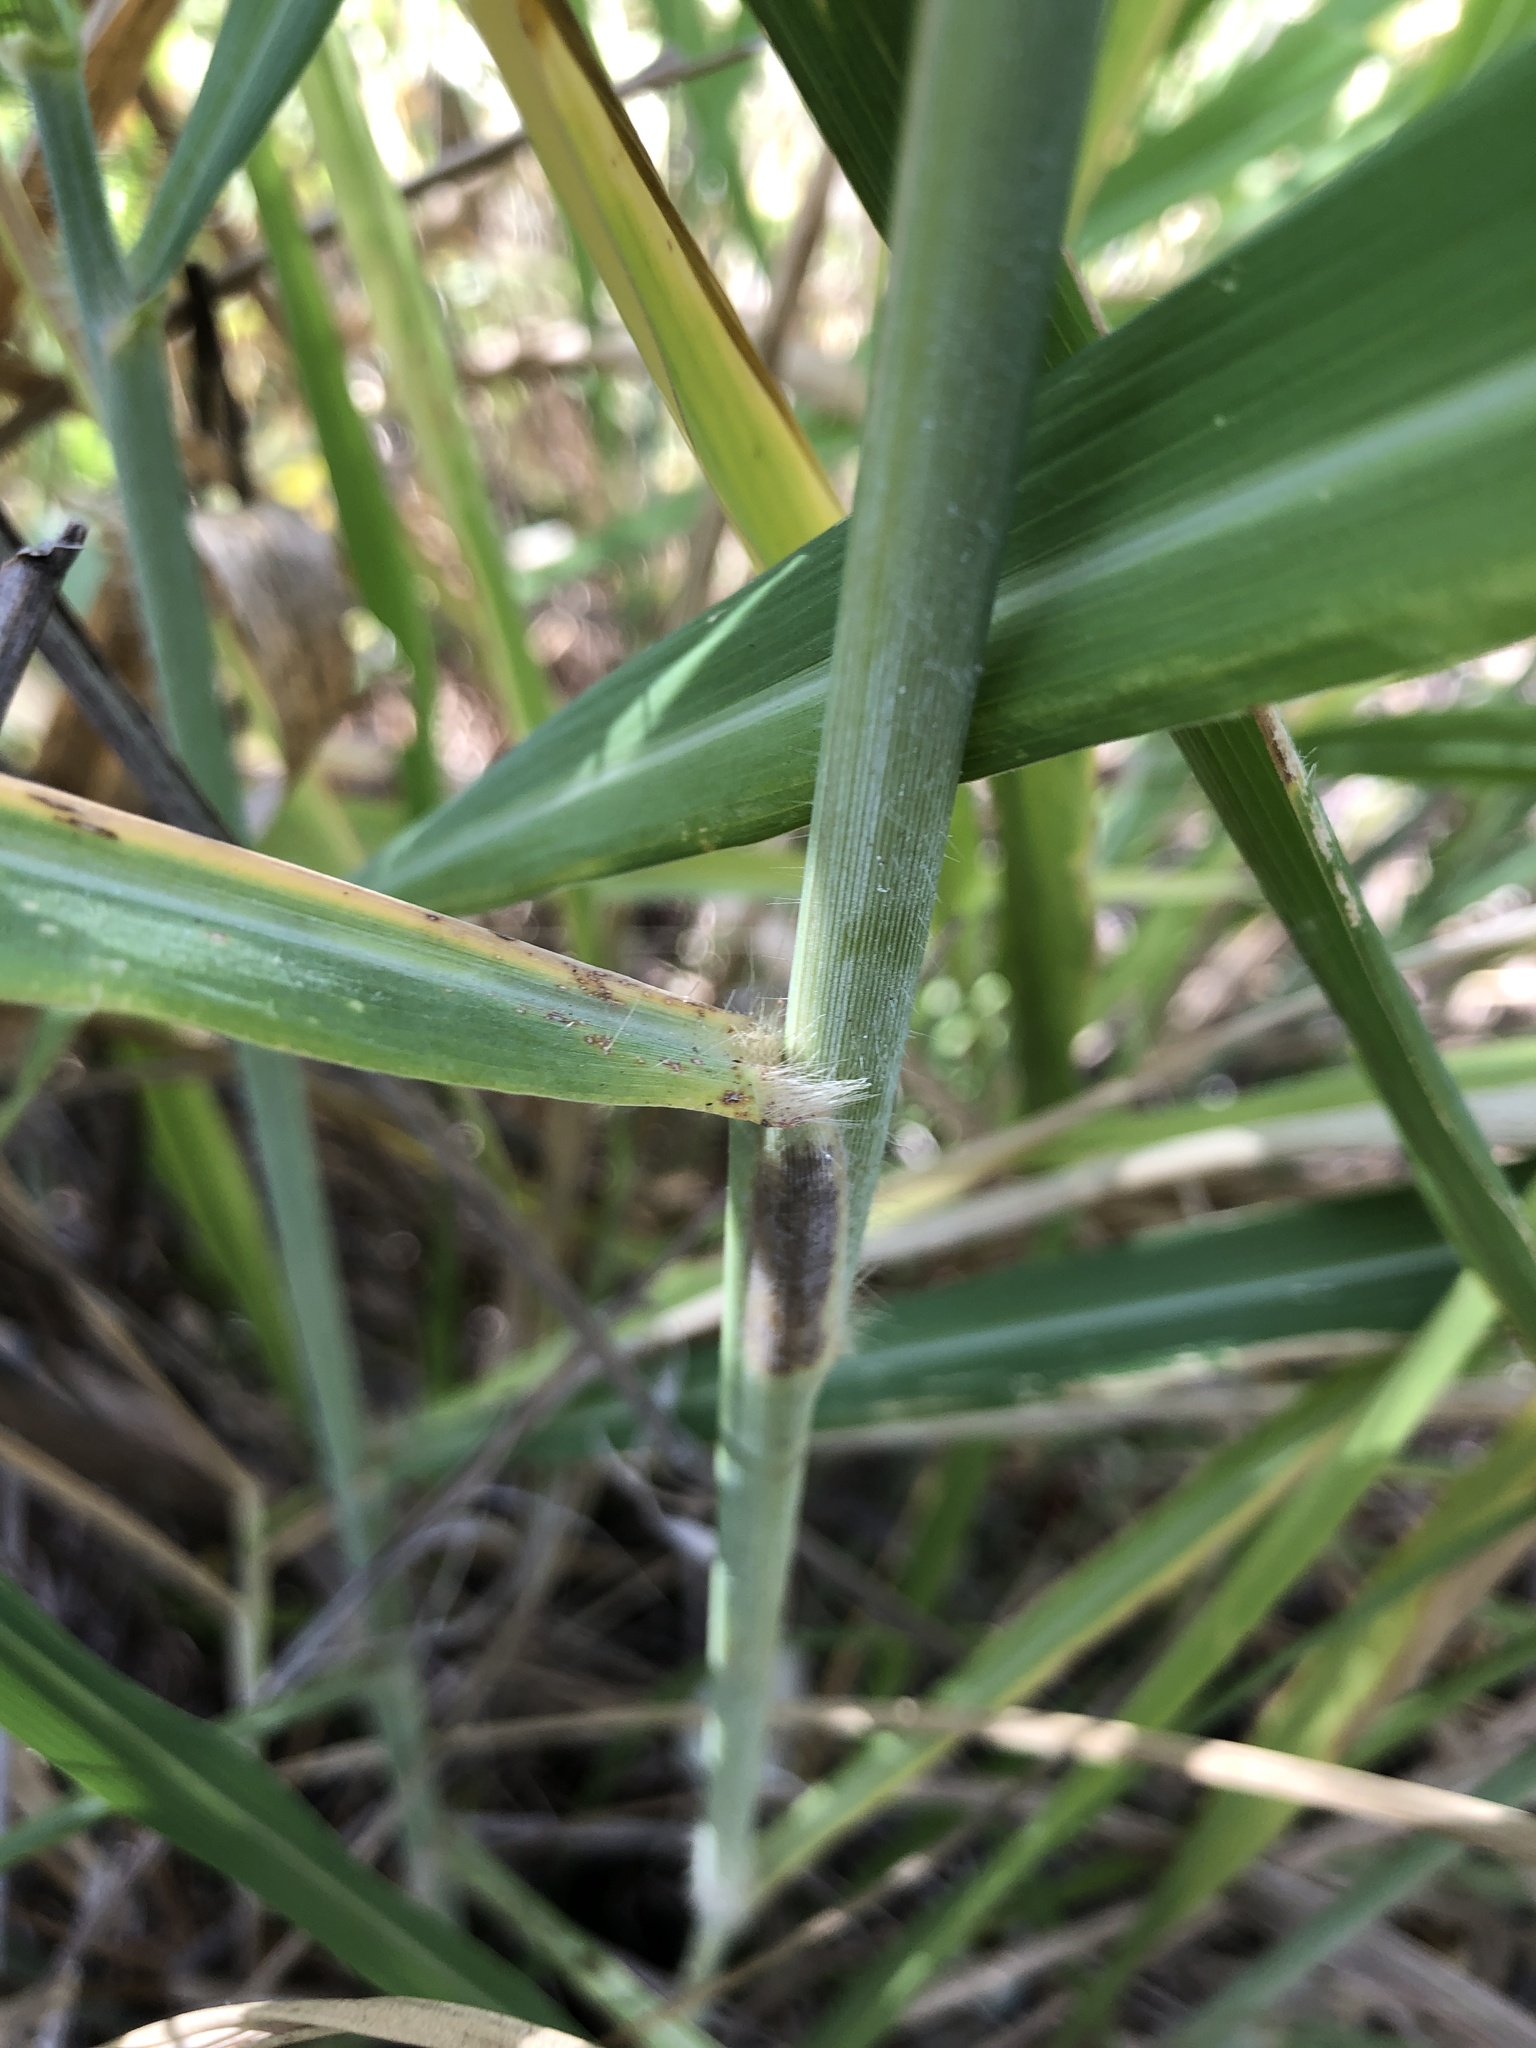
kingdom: Plantae
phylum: Tracheophyta
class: Liliopsida
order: Poales
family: Poaceae
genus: Megathyrsus
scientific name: Megathyrsus maximus
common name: Guineagrass
